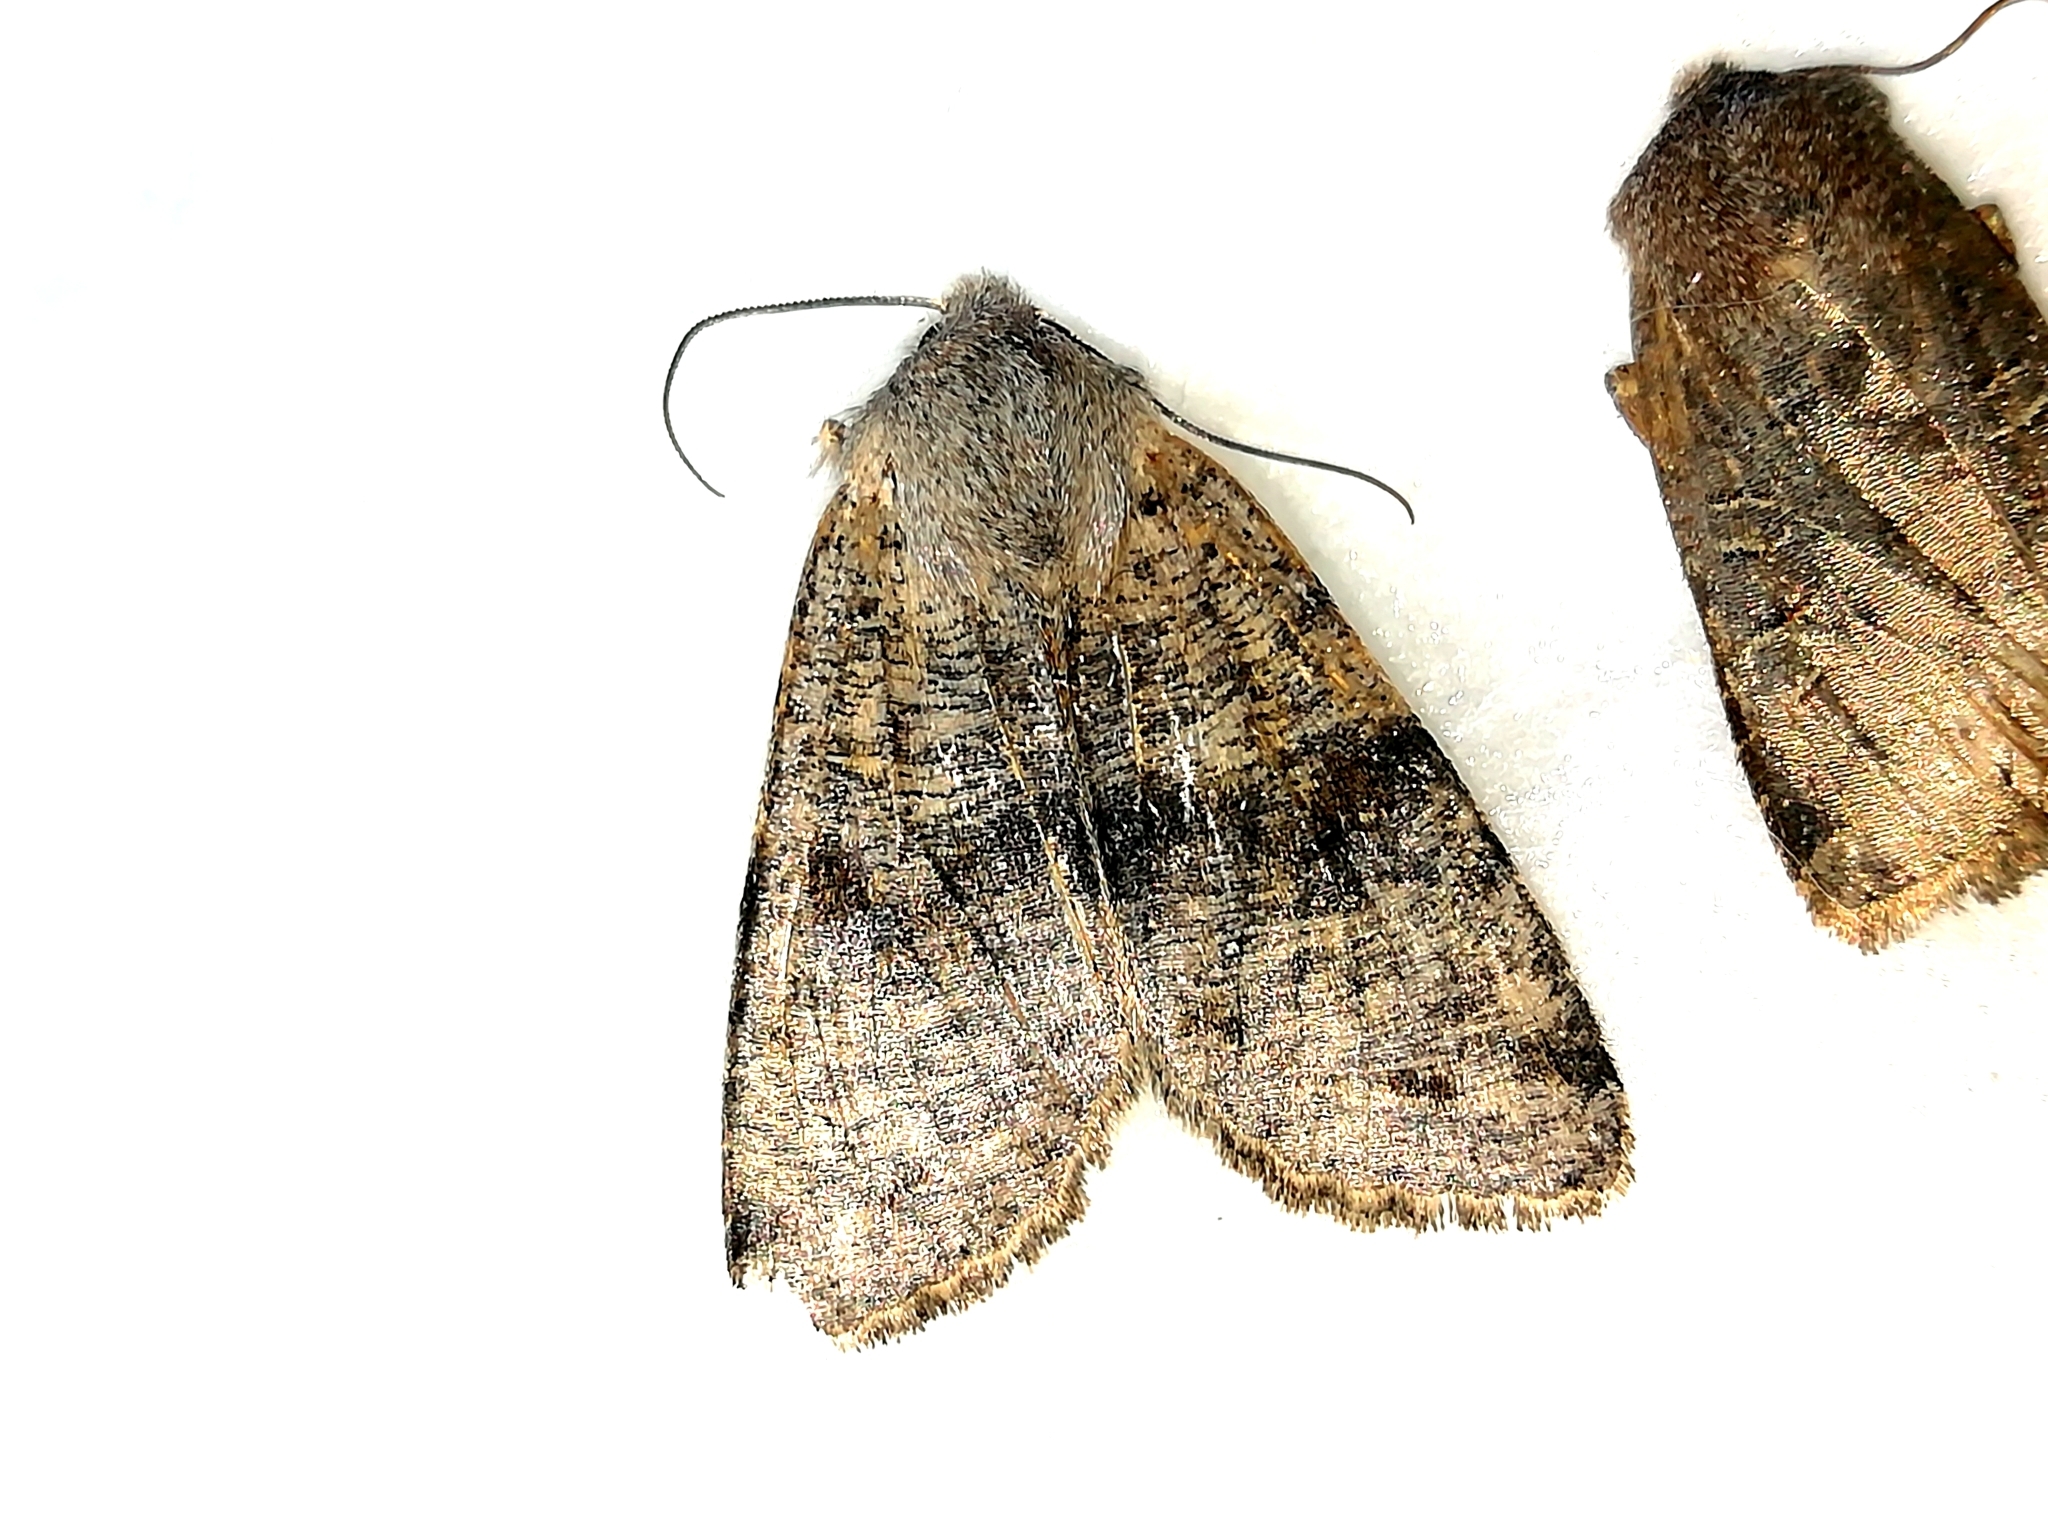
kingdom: Animalia
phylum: Arthropoda
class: Insecta
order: Lepidoptera
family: Noctuidae
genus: Orthosia
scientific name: Orthosia incerta
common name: Clouded drab
